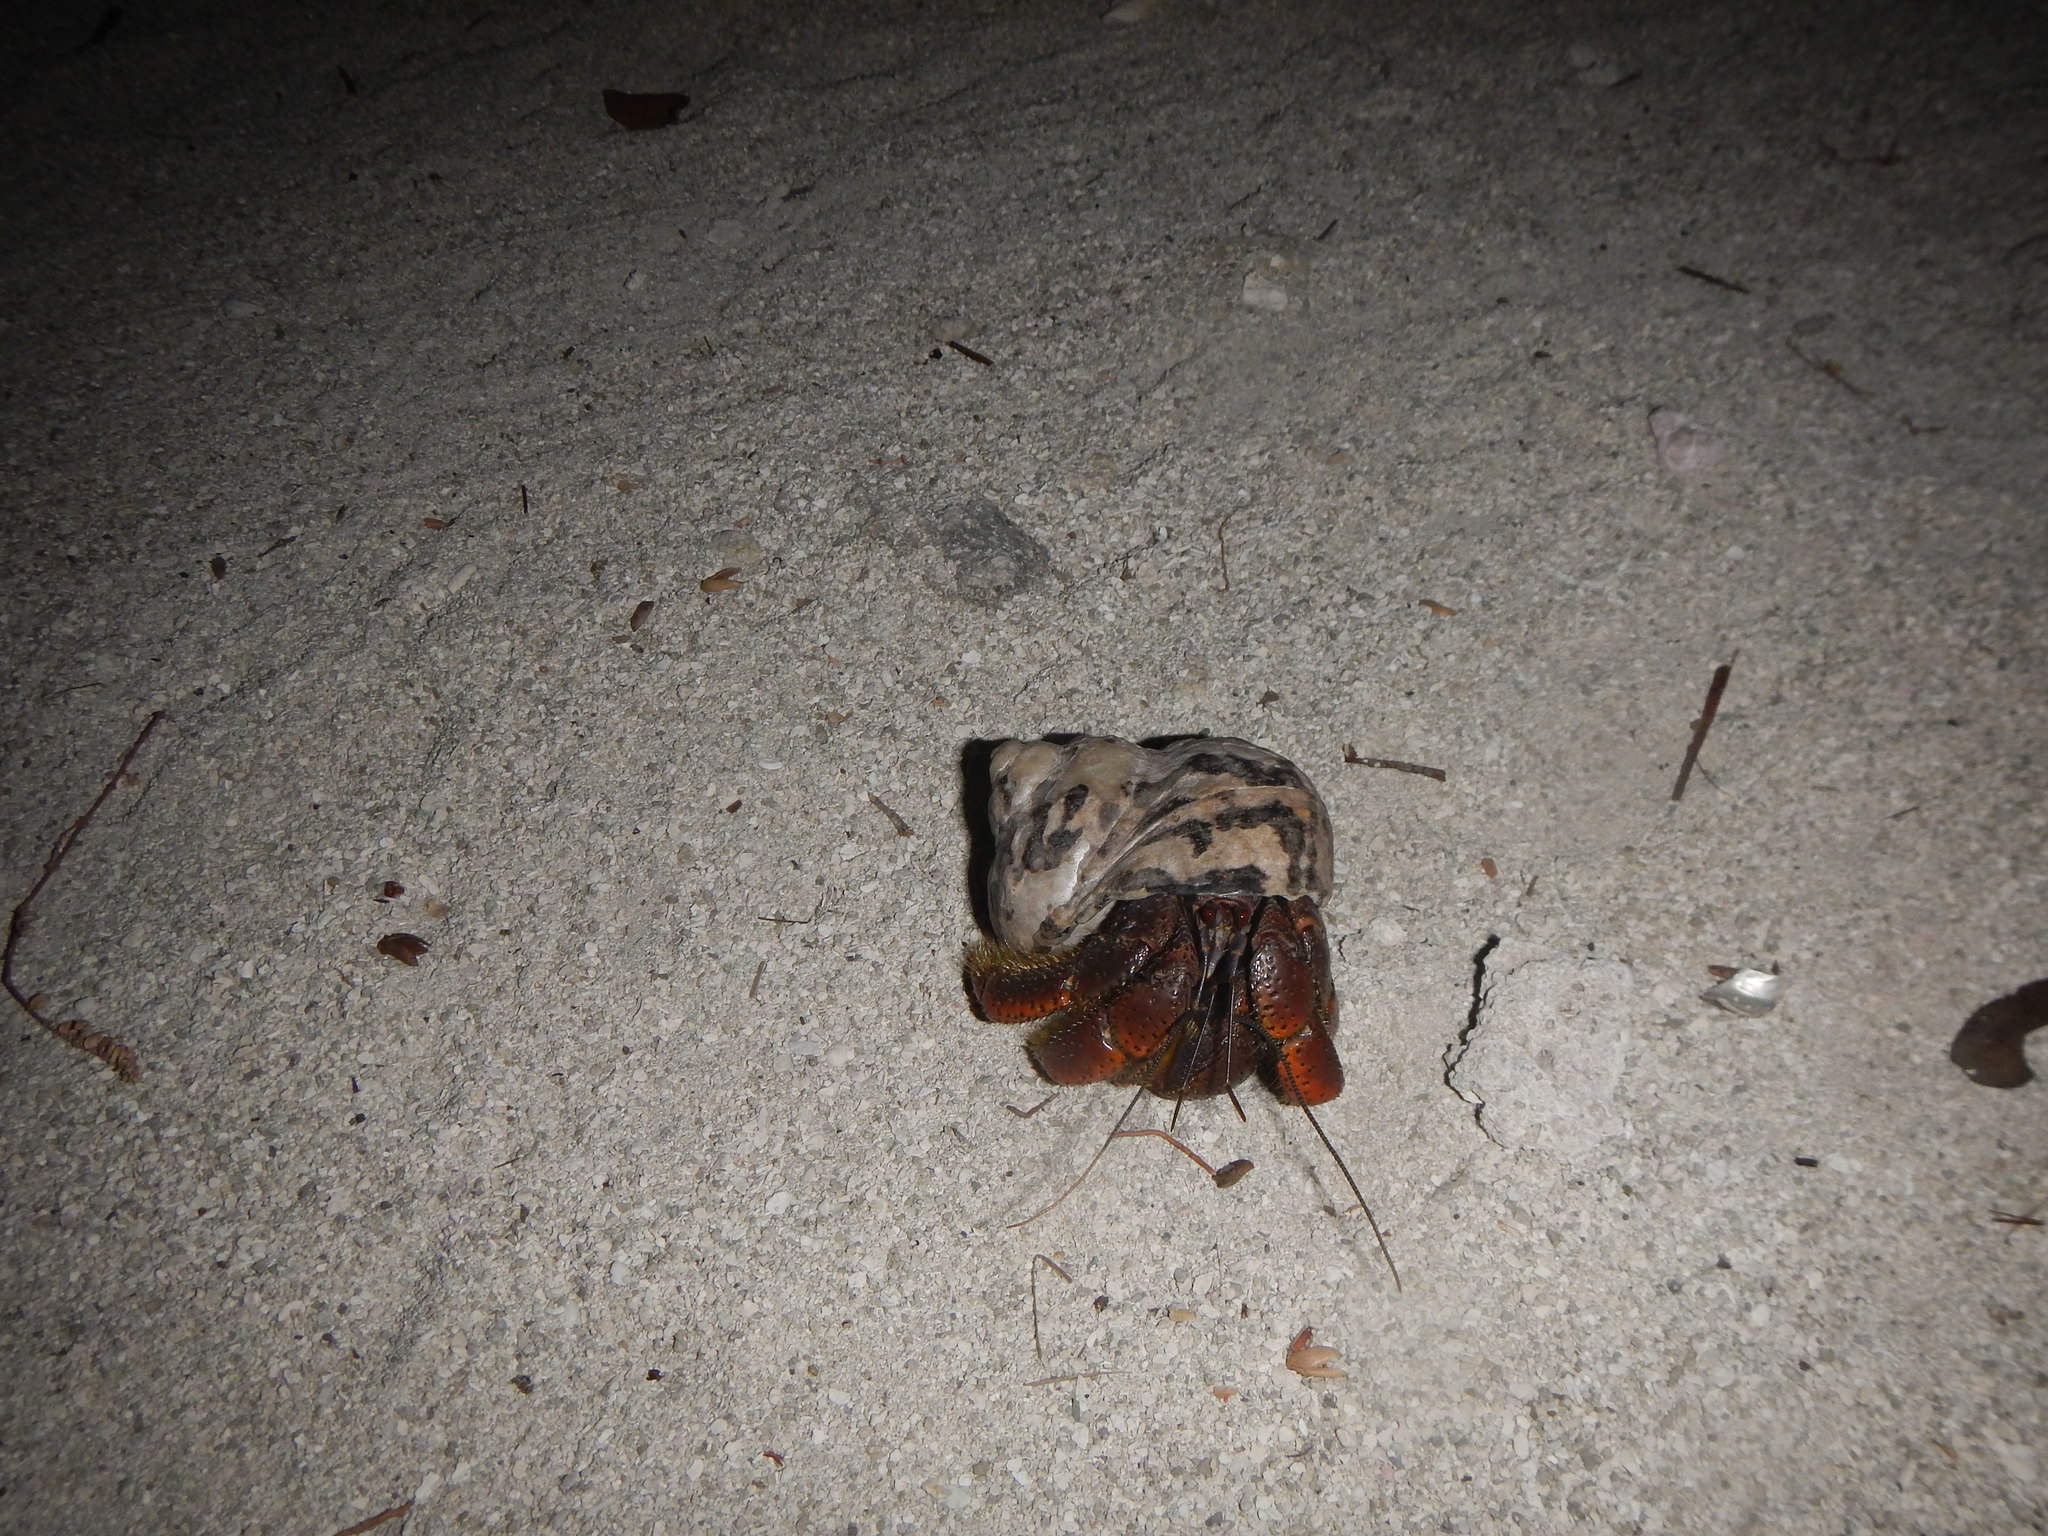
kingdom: Animalia
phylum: Arthropoda
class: Malacostraca
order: Decapoda
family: Coenobitidae
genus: Coenobita
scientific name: Coenobita clypeatus
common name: Caribbean hermit crab
